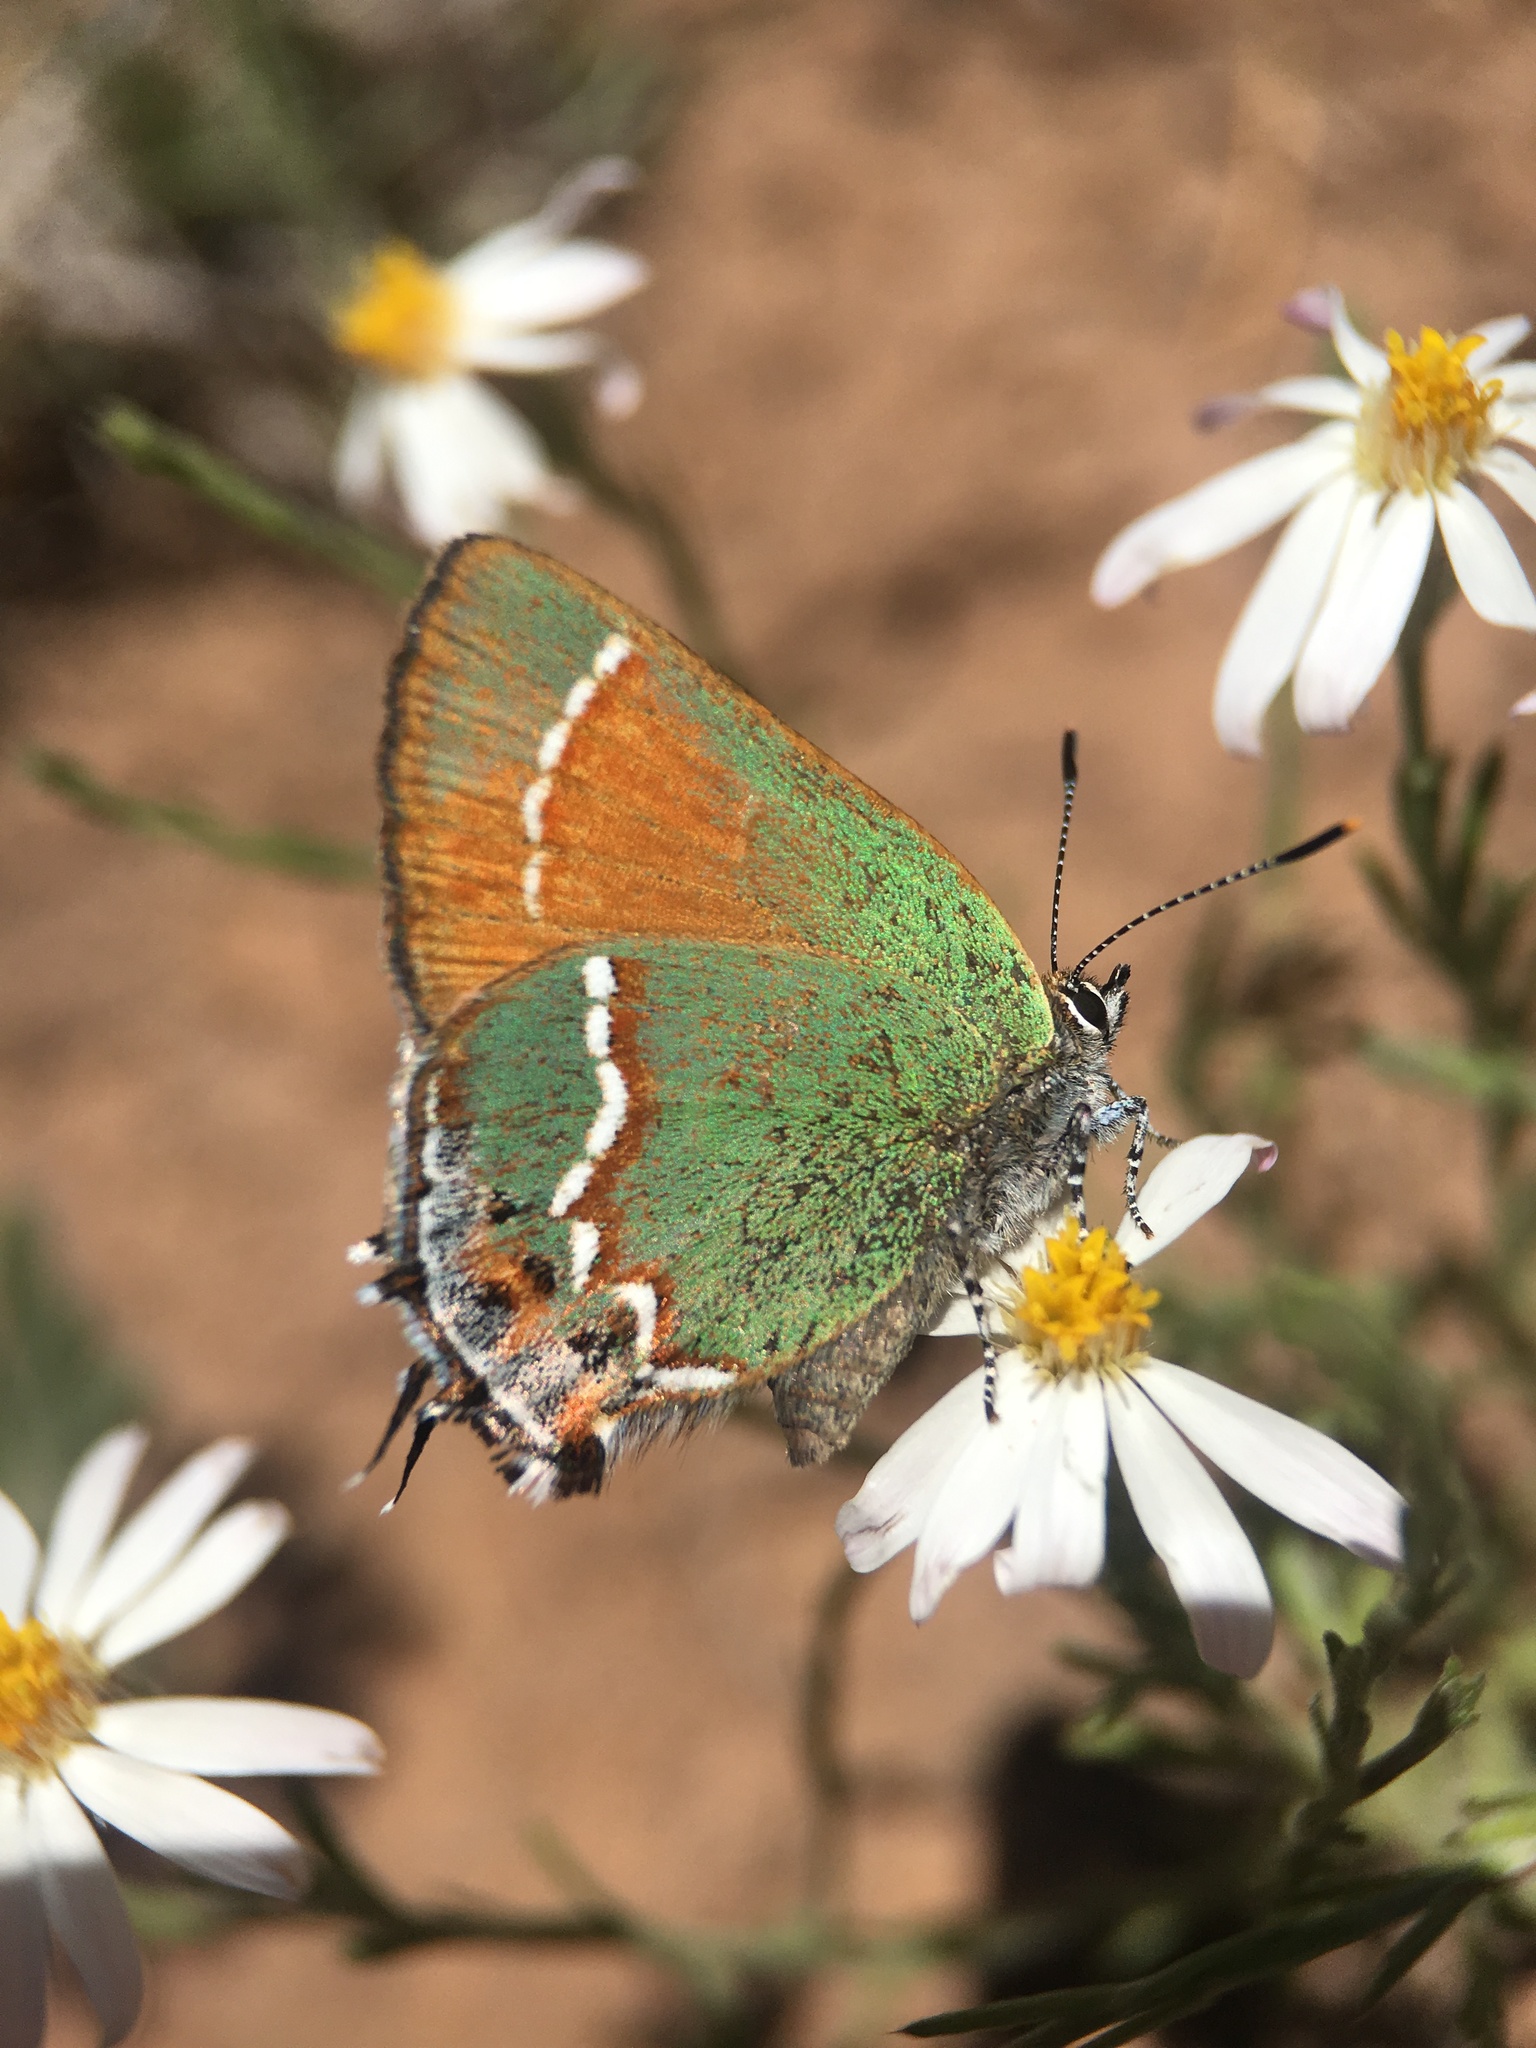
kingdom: Animalia
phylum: Arthropoda
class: Insecta
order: Lepidoptera
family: Lycaenidae
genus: Mitoura
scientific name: Mitoura gryneus
